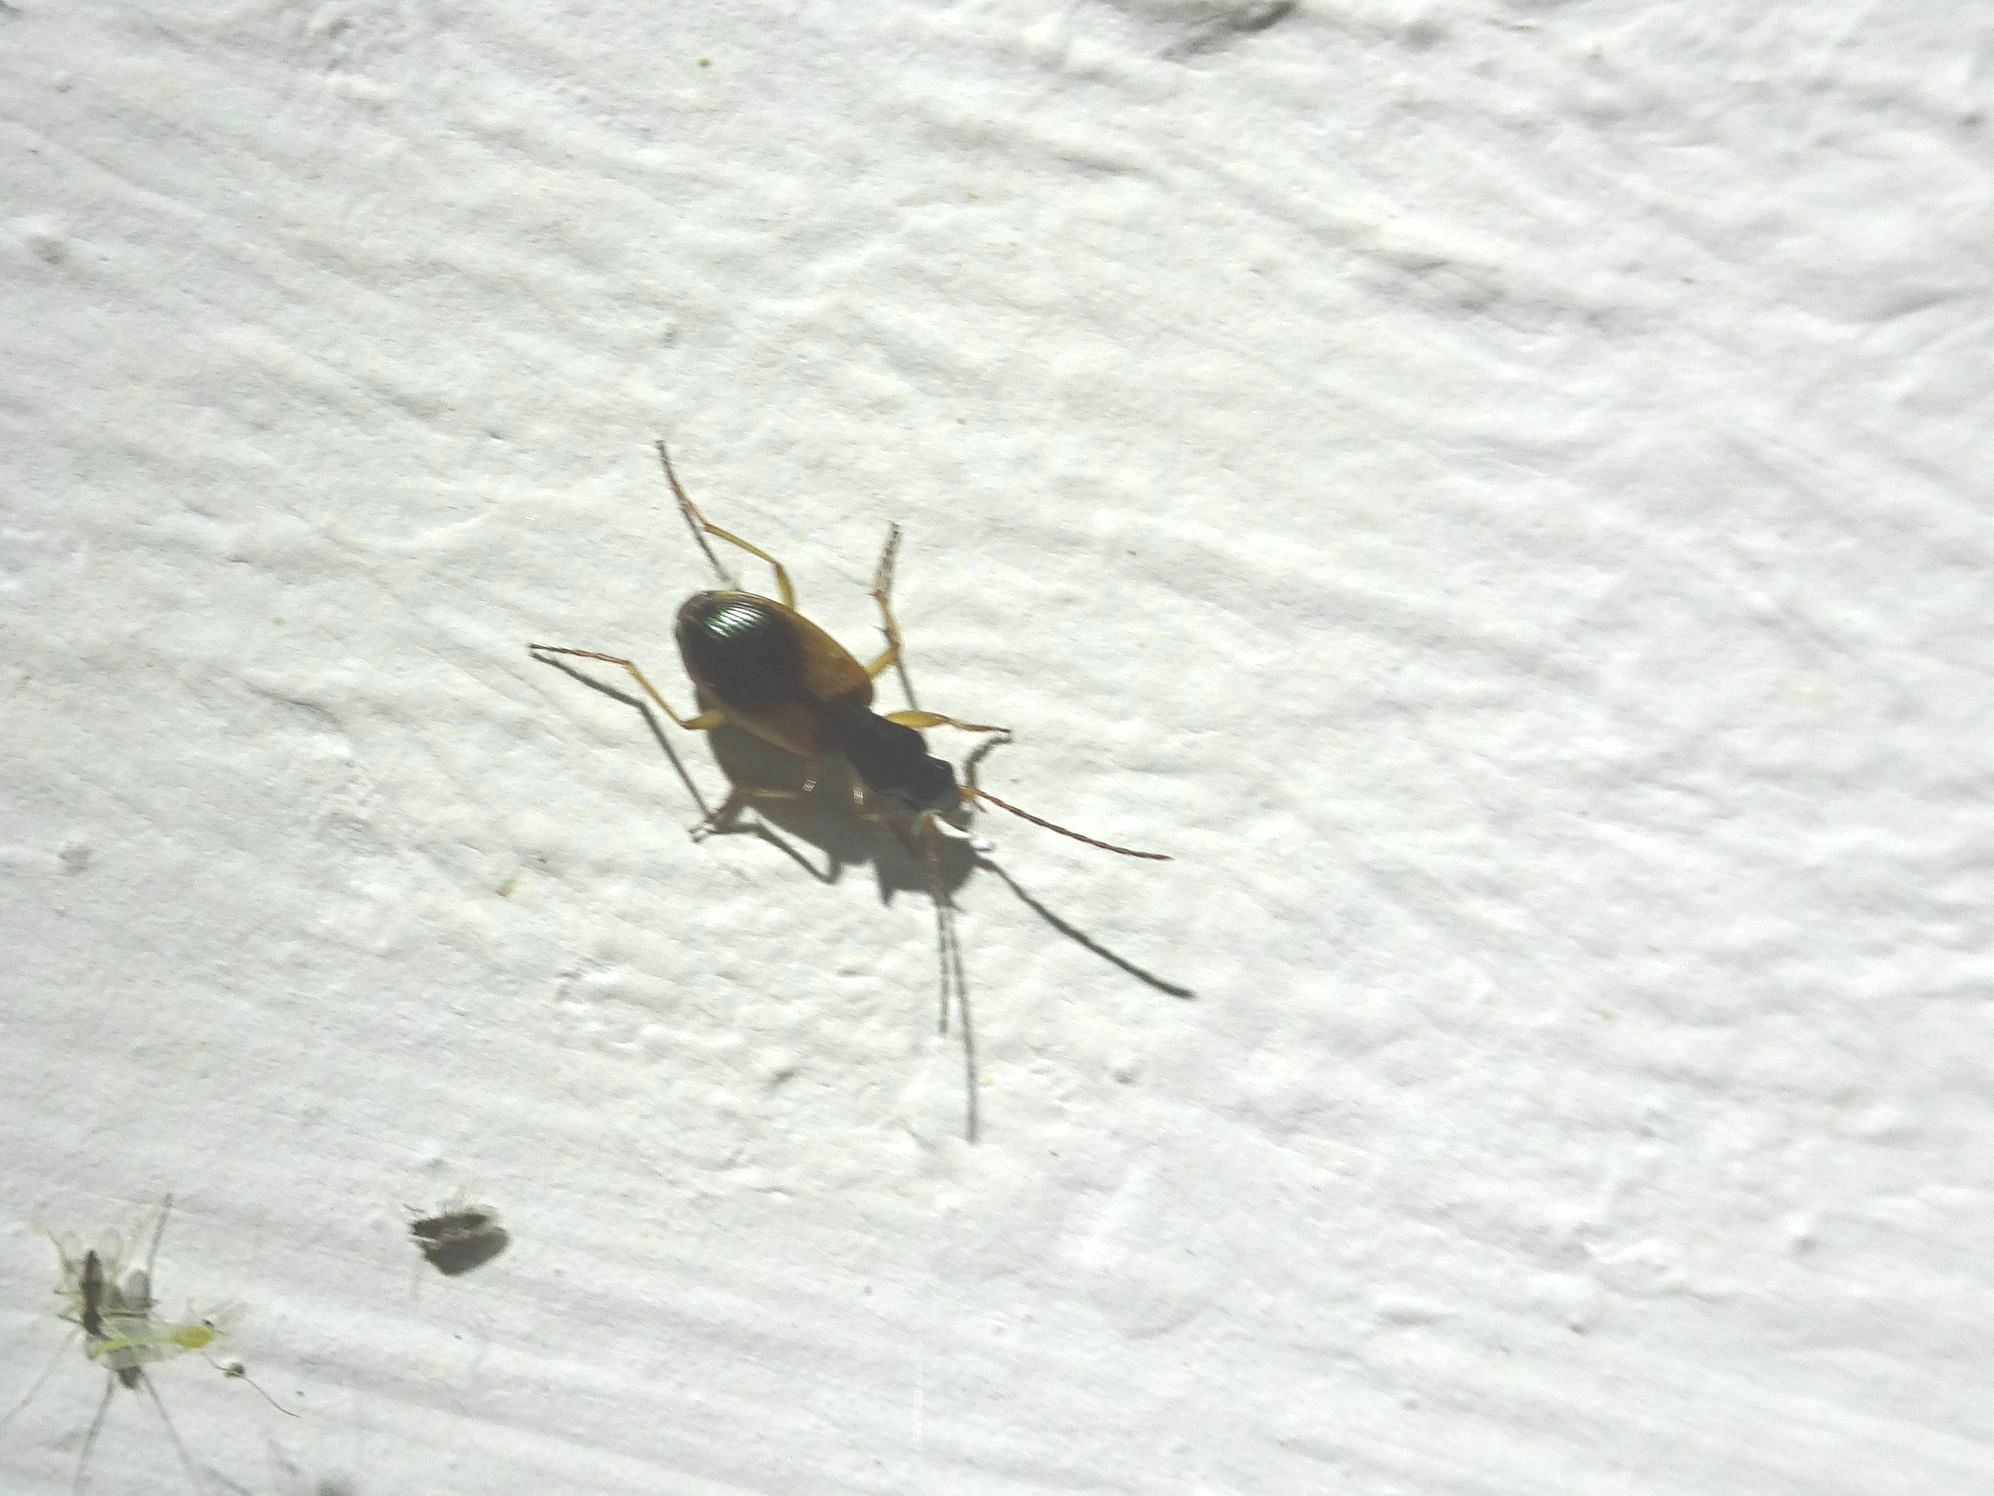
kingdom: Animalia
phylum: Arthropoda
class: Insecta
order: Coleoptera
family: Carabidae
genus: Anchomenus
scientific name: Anchomenus dorsalis
